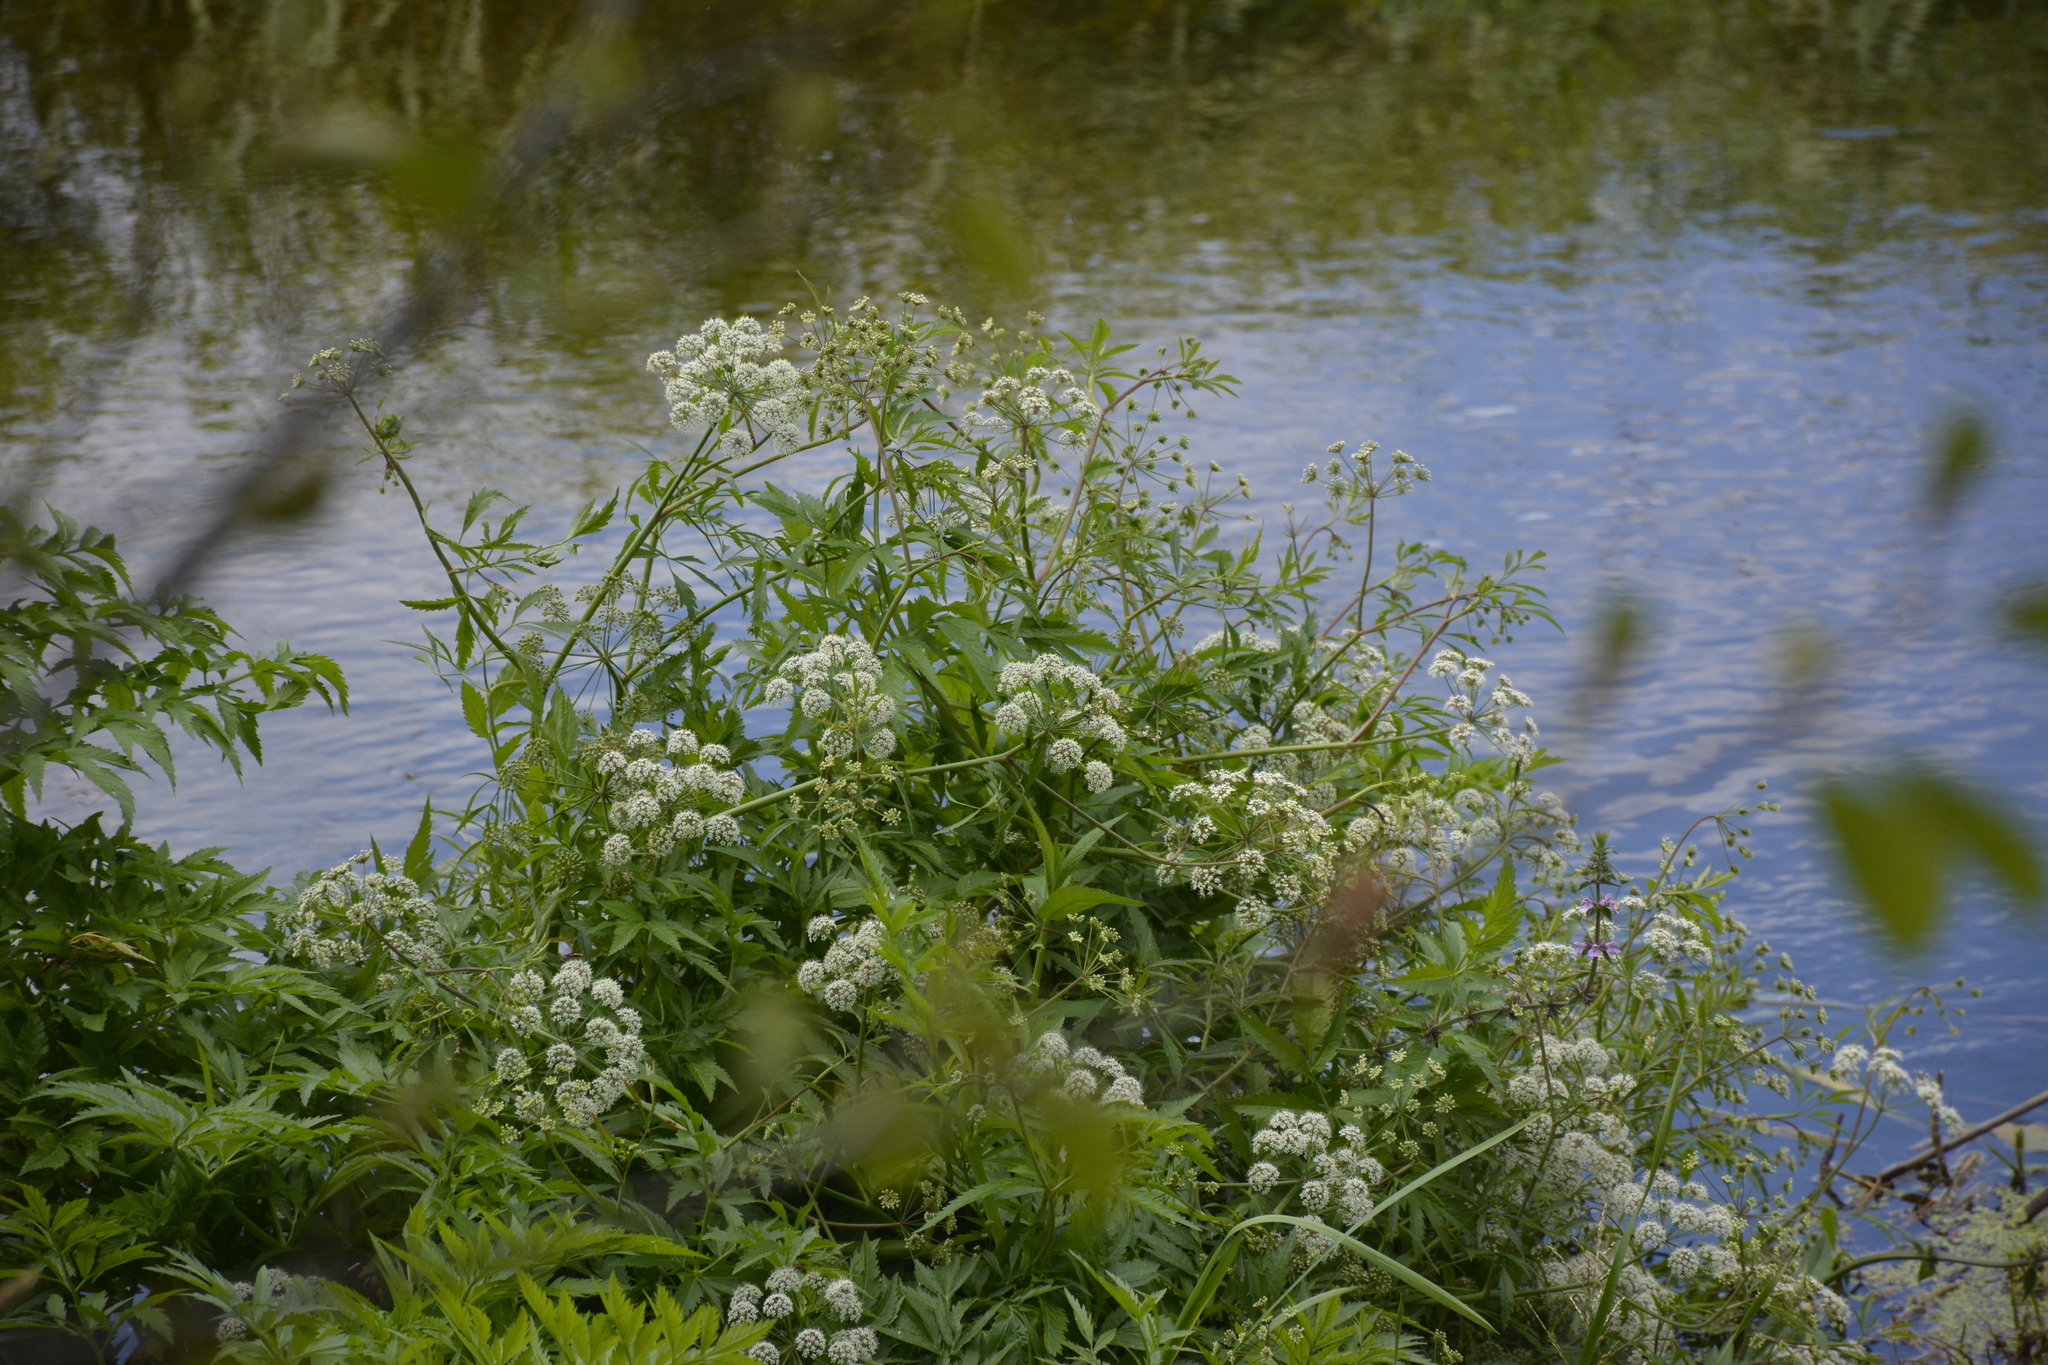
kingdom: Plantae
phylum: Tracheophyta
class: Magnoliopsida
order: Apiales
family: Apiaceae
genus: Cicuta
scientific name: Cicuta virosa
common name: Cowbane
